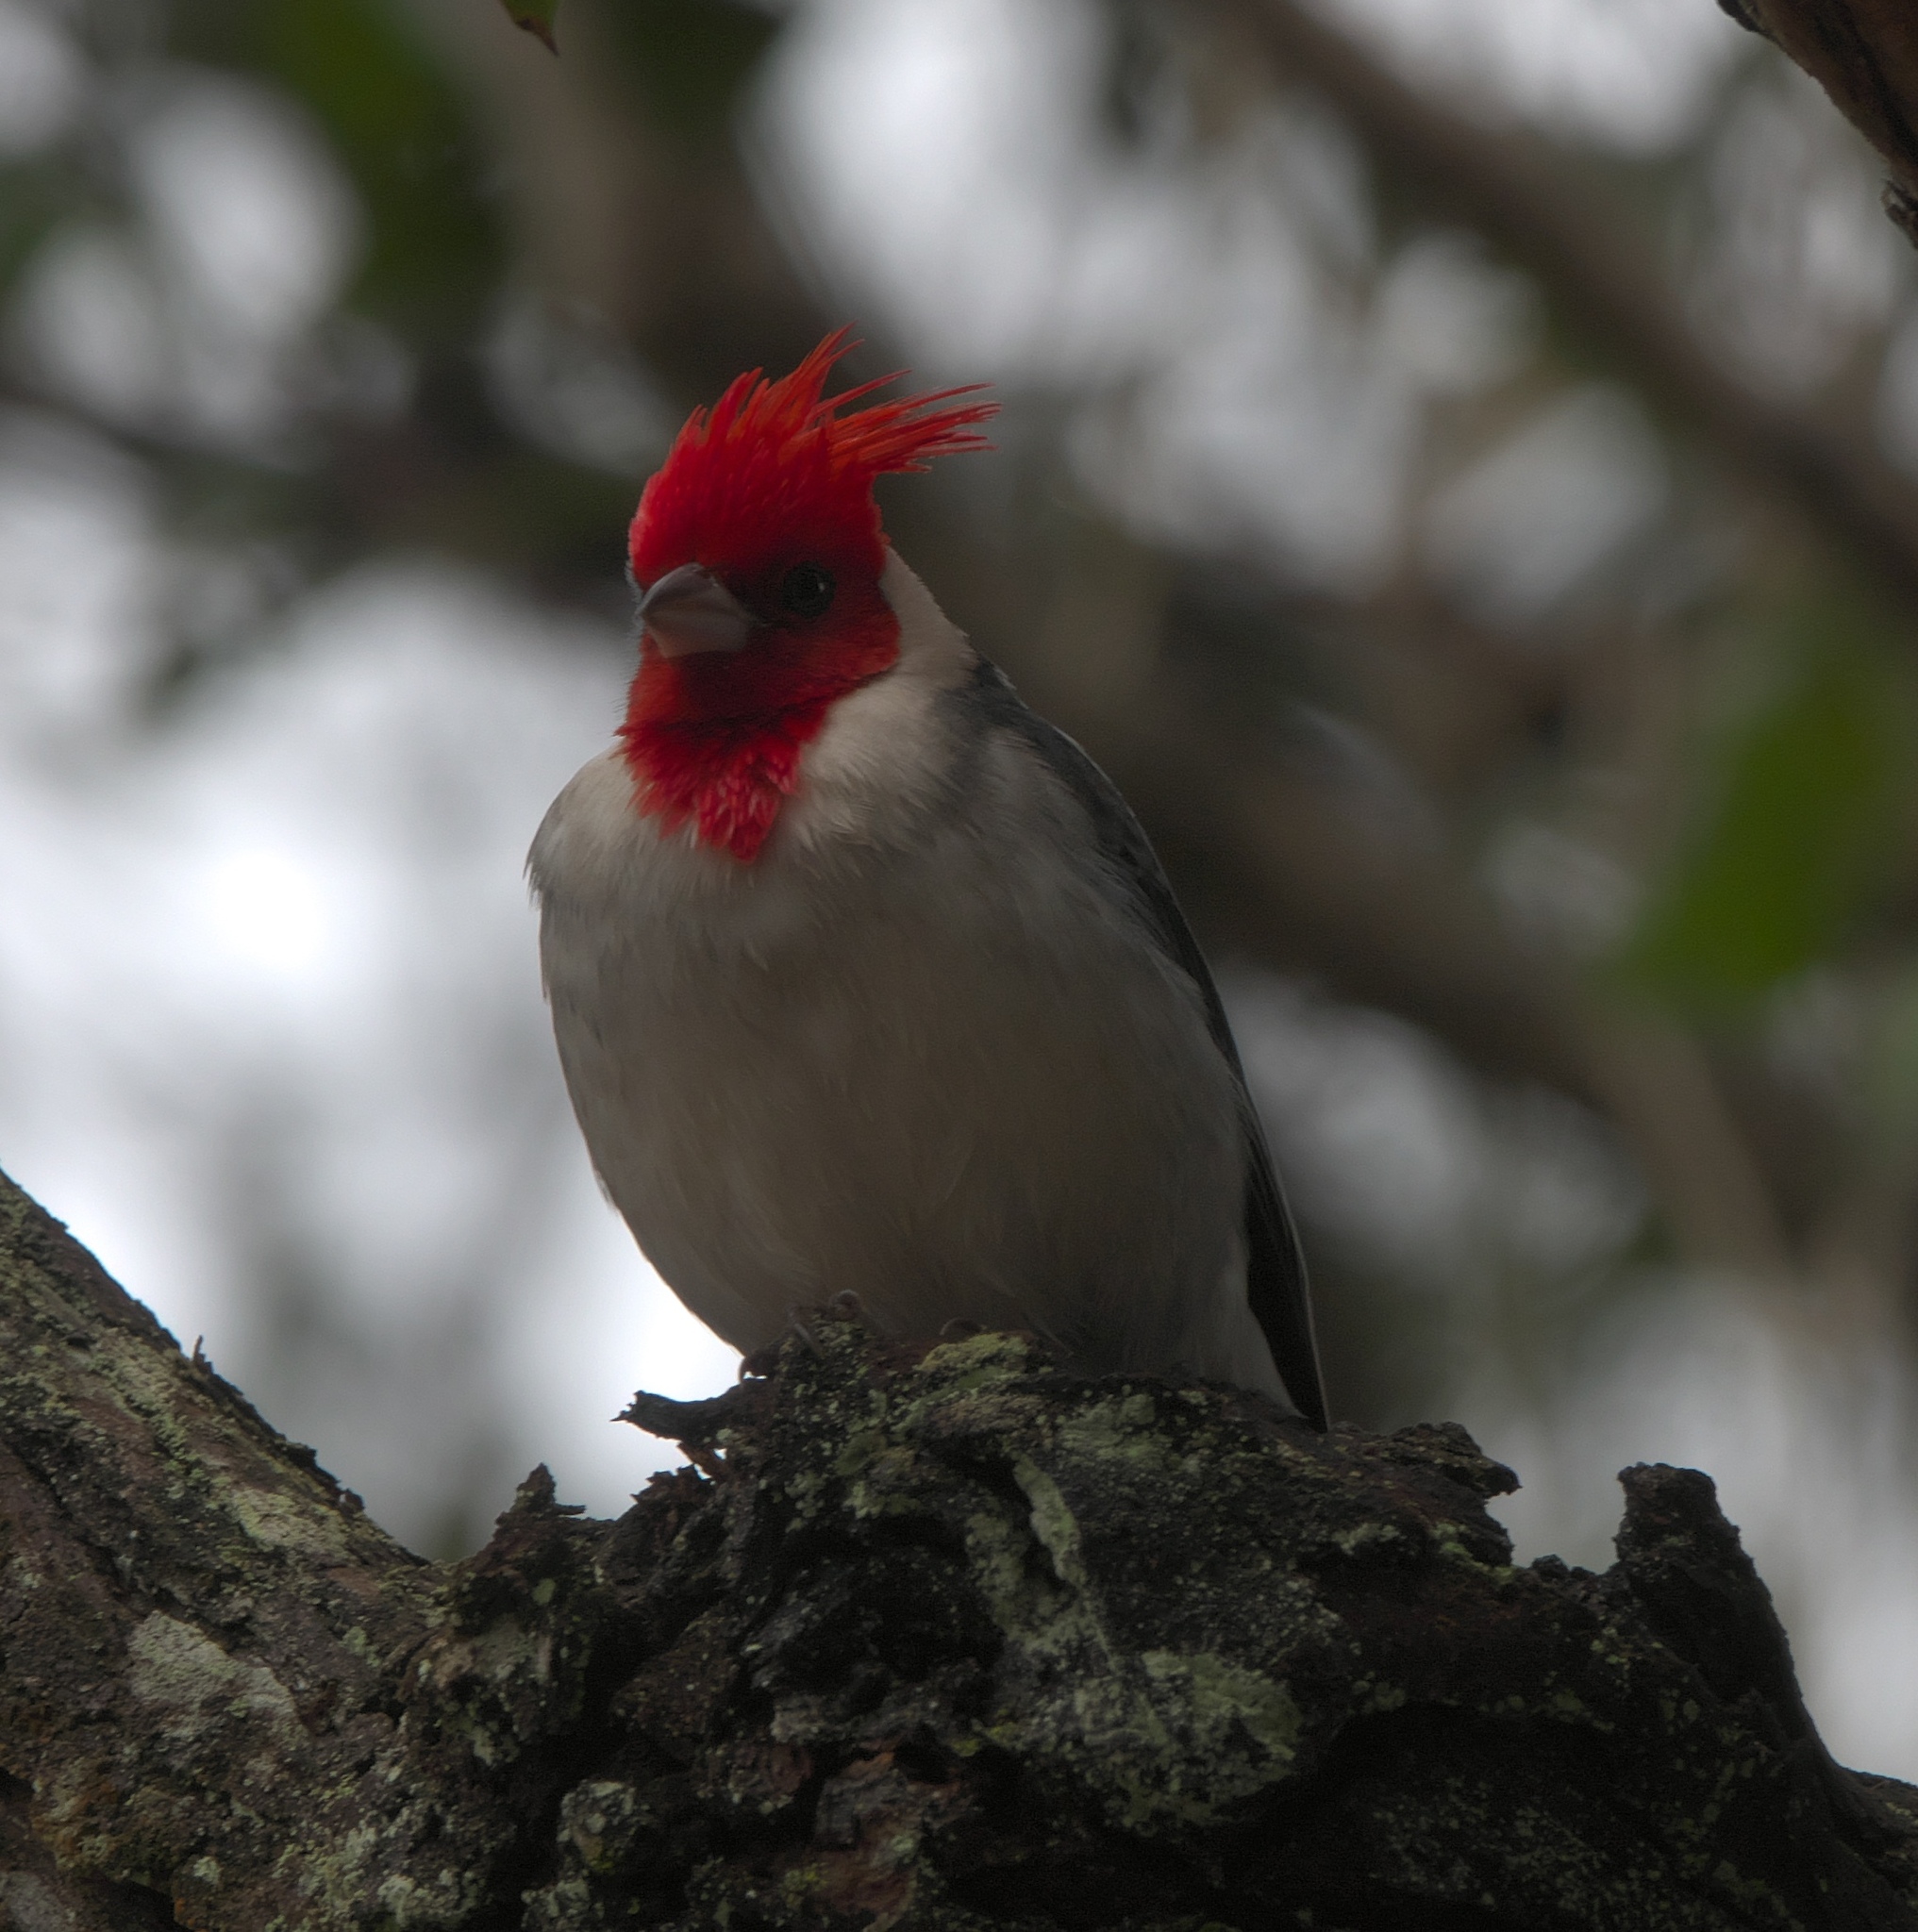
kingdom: Animalia
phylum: Chordata
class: Aves
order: Passeriformes
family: Thraupidae
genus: Paroaria
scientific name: Paroaria coronata
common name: Red-crested cardinal
